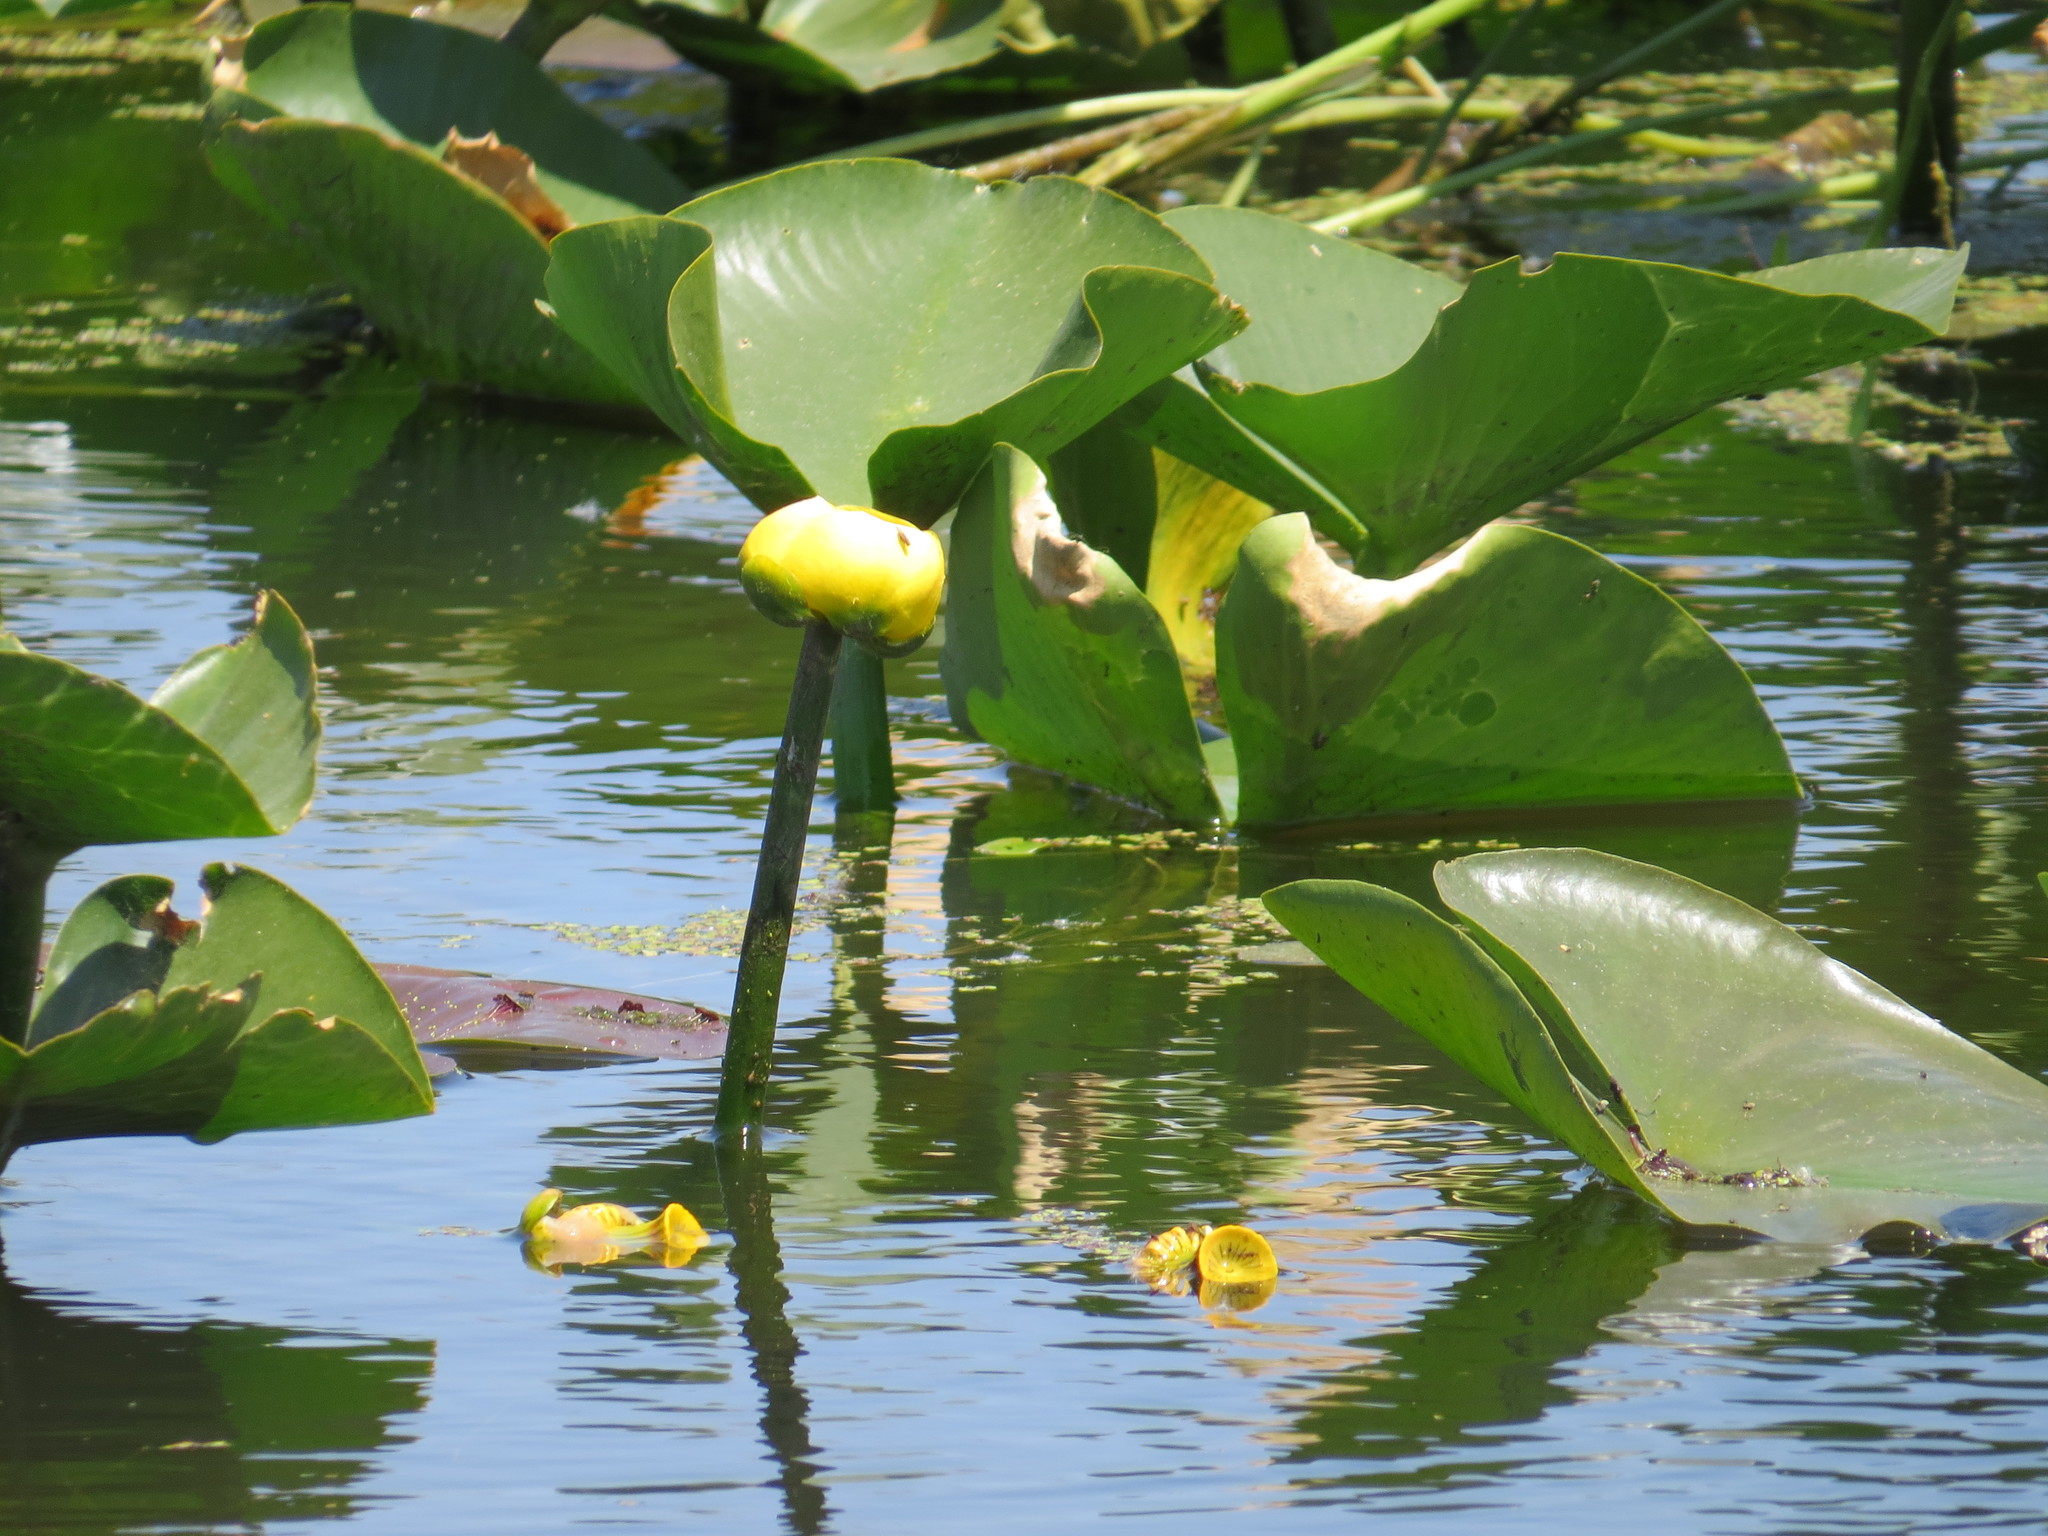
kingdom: Plantae
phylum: Tracheophyta
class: Magnoliopsida
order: Nymphaeales
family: Nymphaeaceae
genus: Nuphar
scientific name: Nuphar lutea
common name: Yellow water-lily
